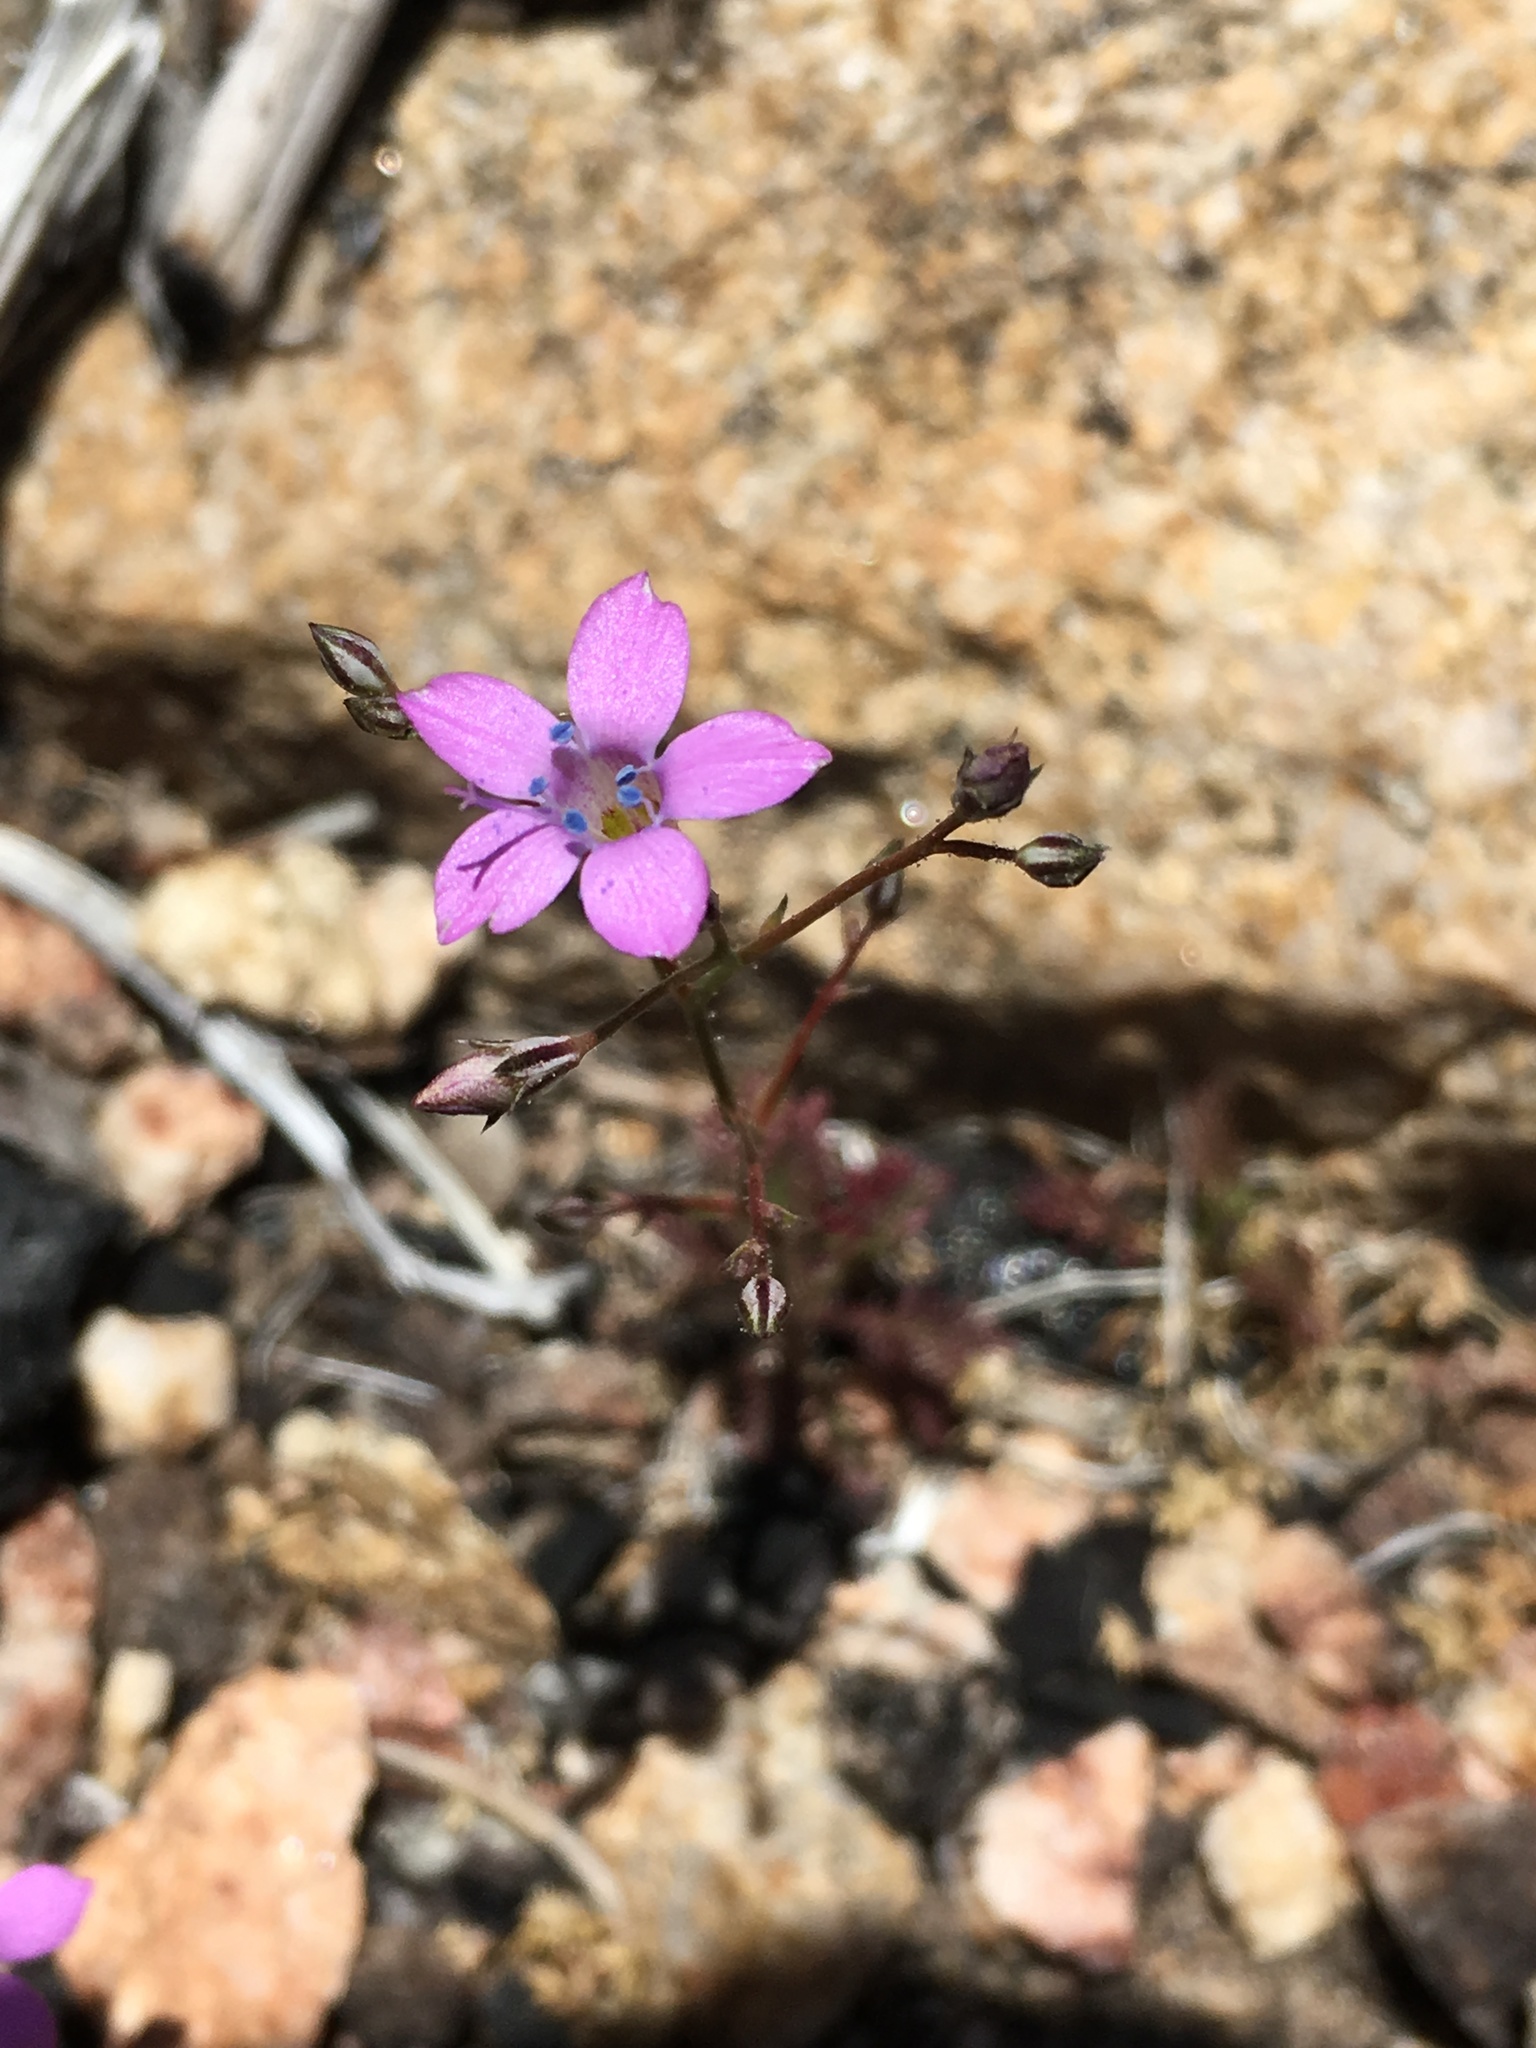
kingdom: Plantae
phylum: Tracheophyta
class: Magnoliopsida
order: Ericales
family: Polemoniaceae
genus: Saltugilia
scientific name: Saltugilia splendens
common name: Grinnell's gilia
